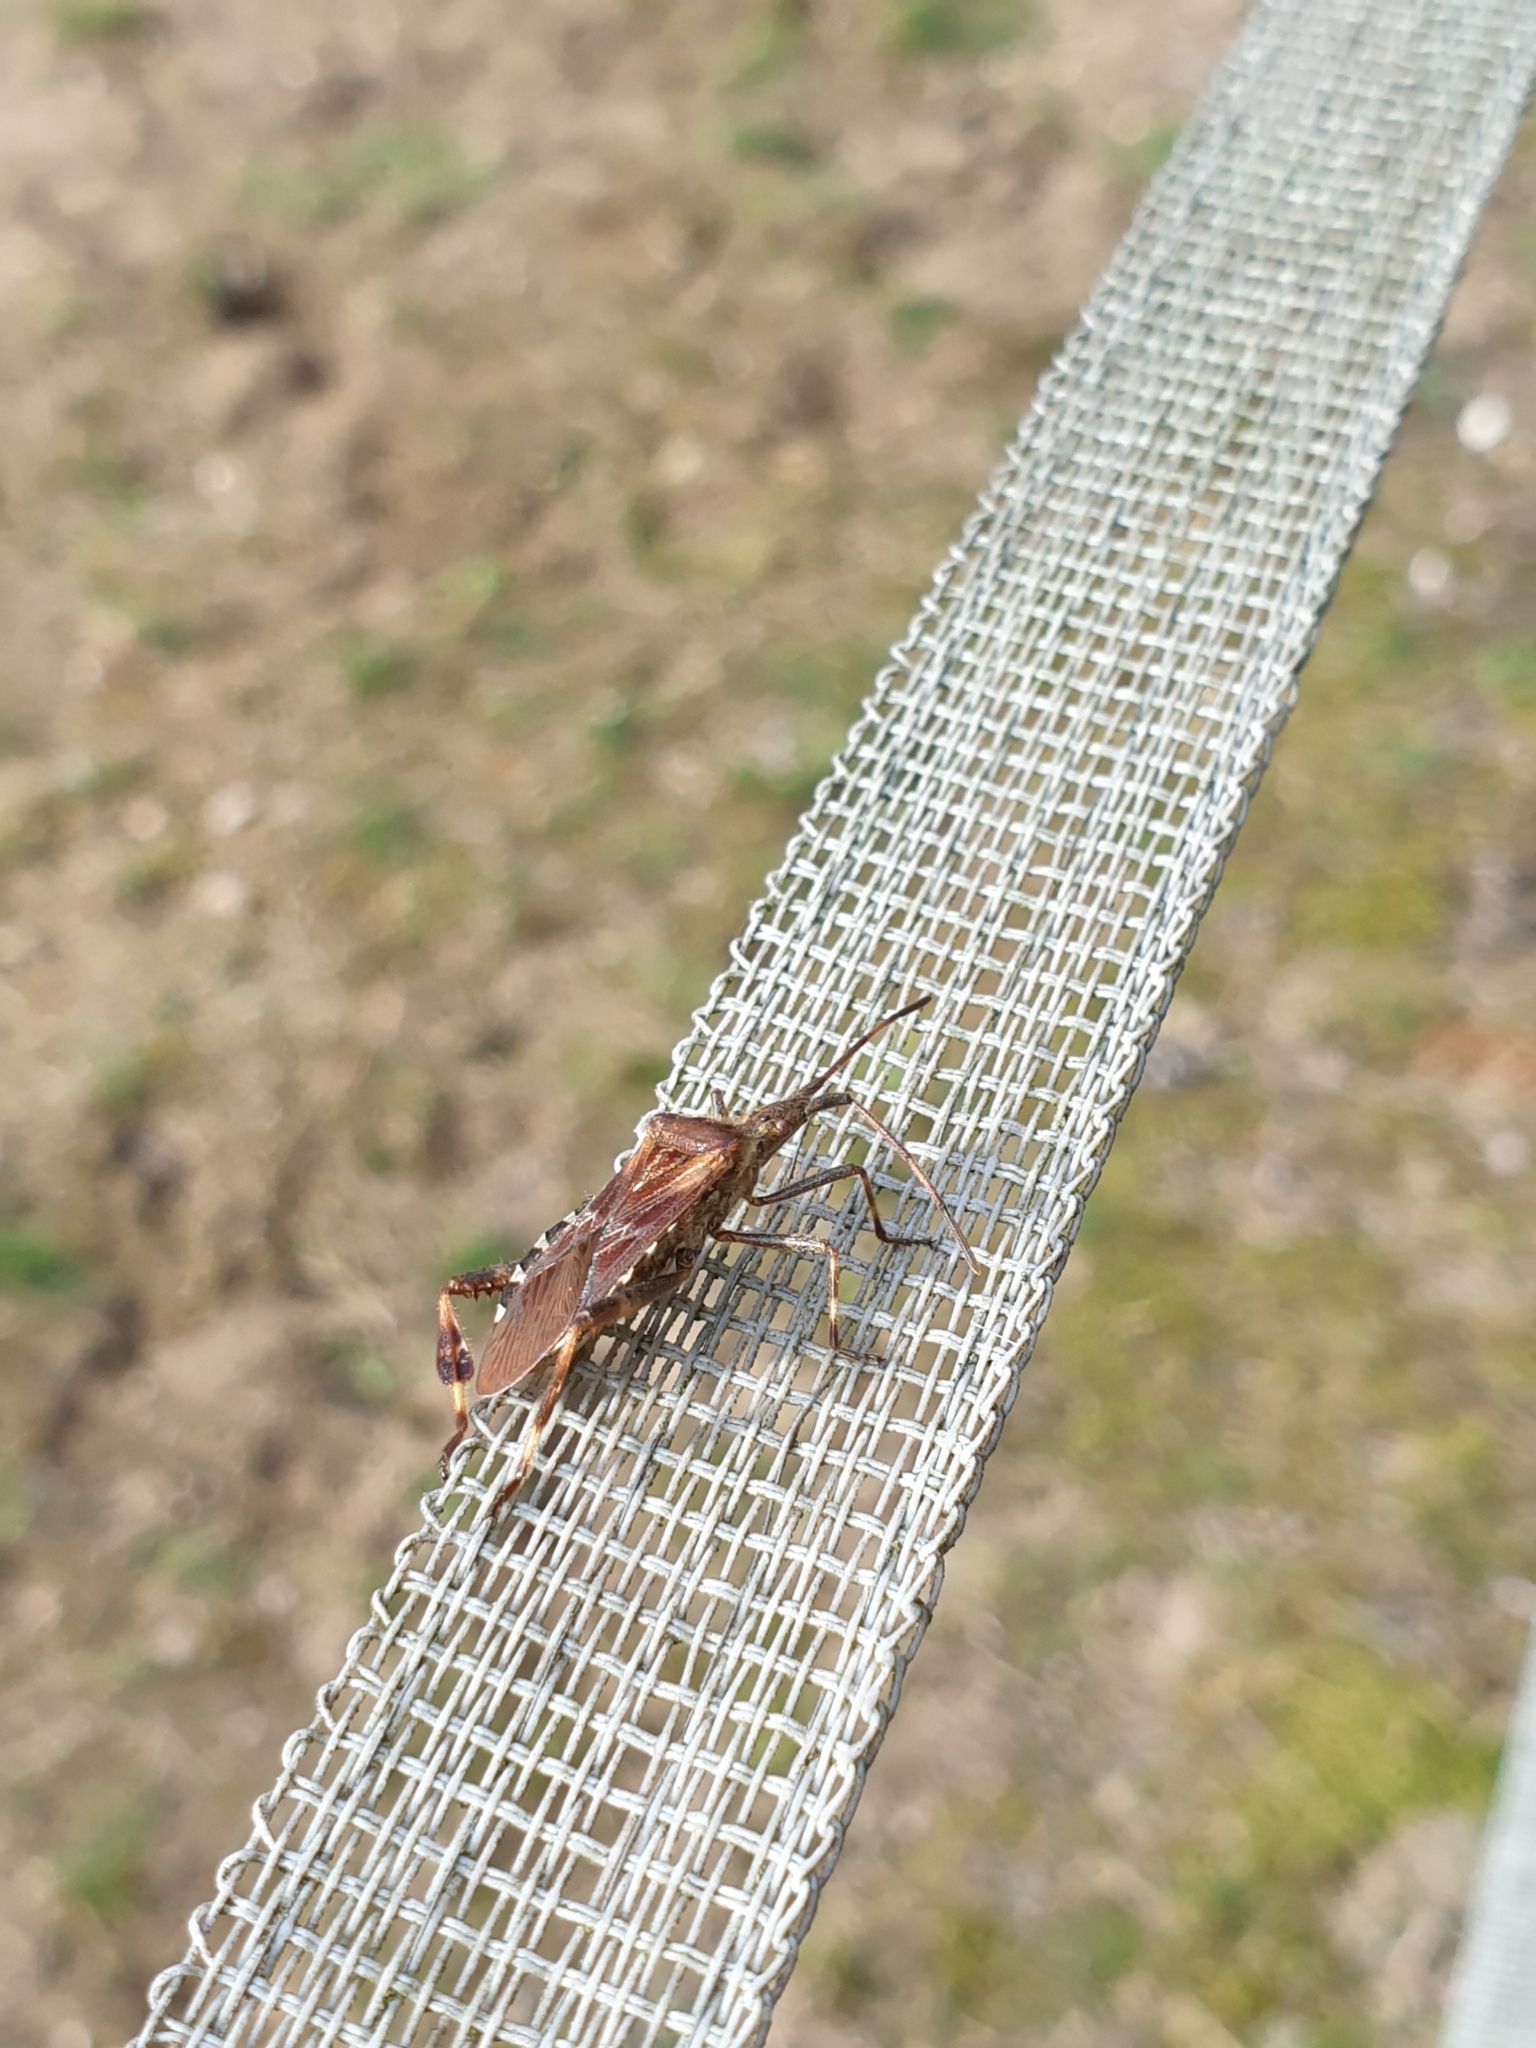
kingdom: Animalia
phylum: Arthropoda
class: Insecta
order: Hemiptera
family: Coreidae
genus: Leptoglossus
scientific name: Leptoglossus occidentalis
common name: Western conifer-seed bug
